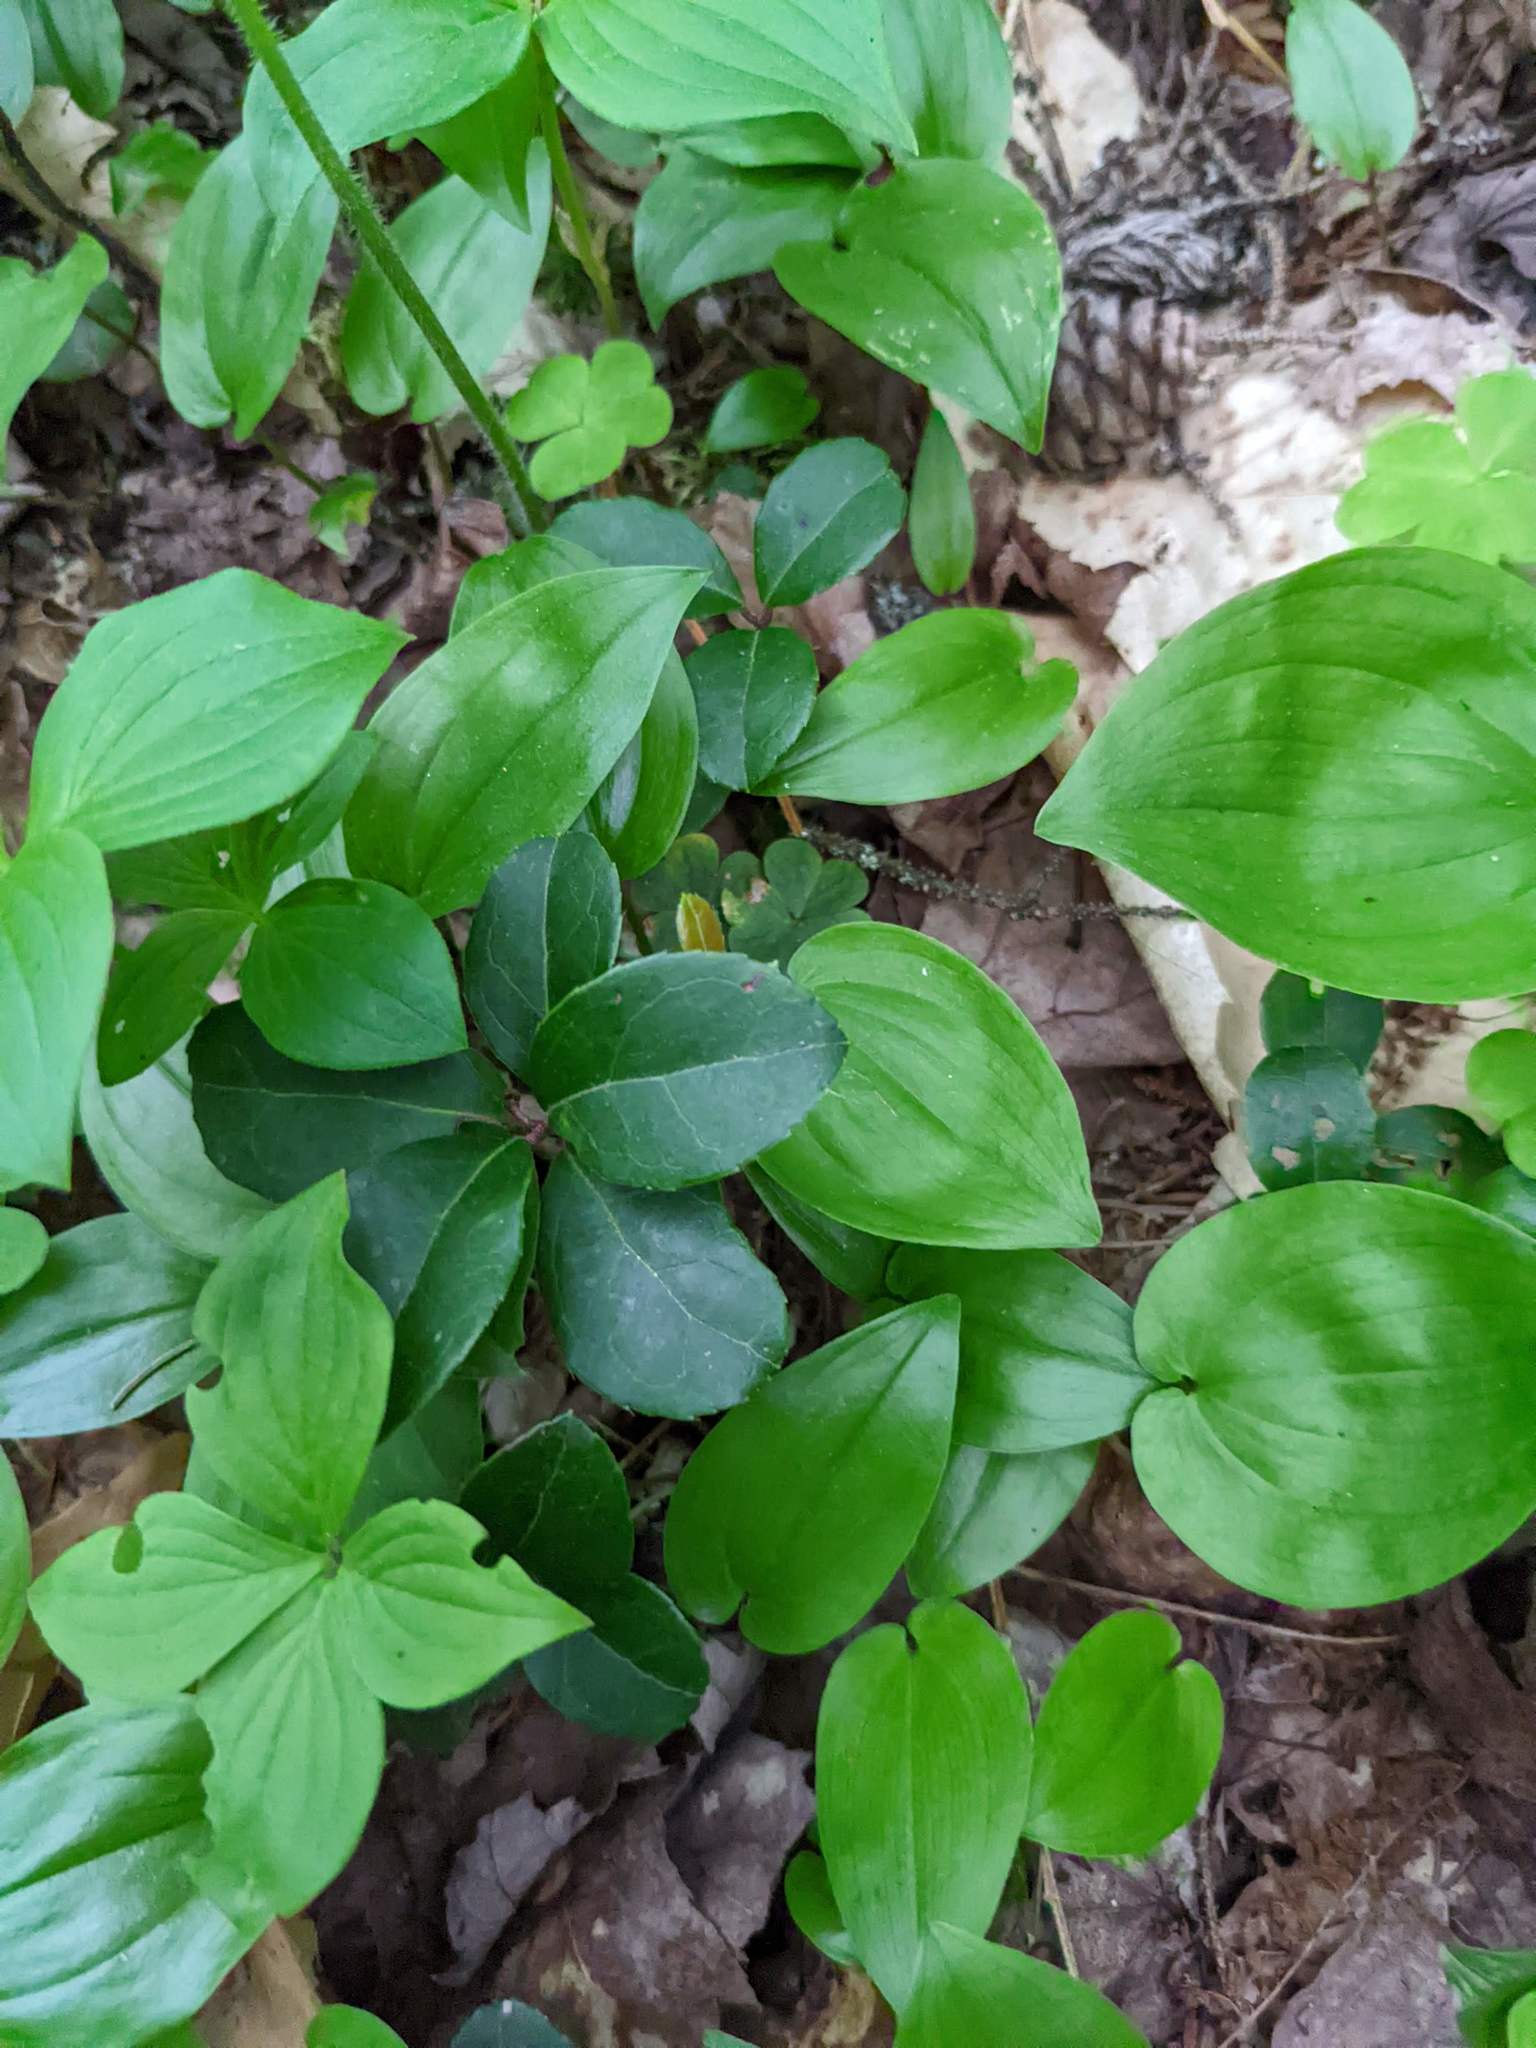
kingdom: Plantae
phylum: Tracheophyta
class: Magnoliopsida
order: Ericales
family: Ericaceae
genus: Gaultheria
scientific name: Gaultheria procumbens
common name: Checkerberry
